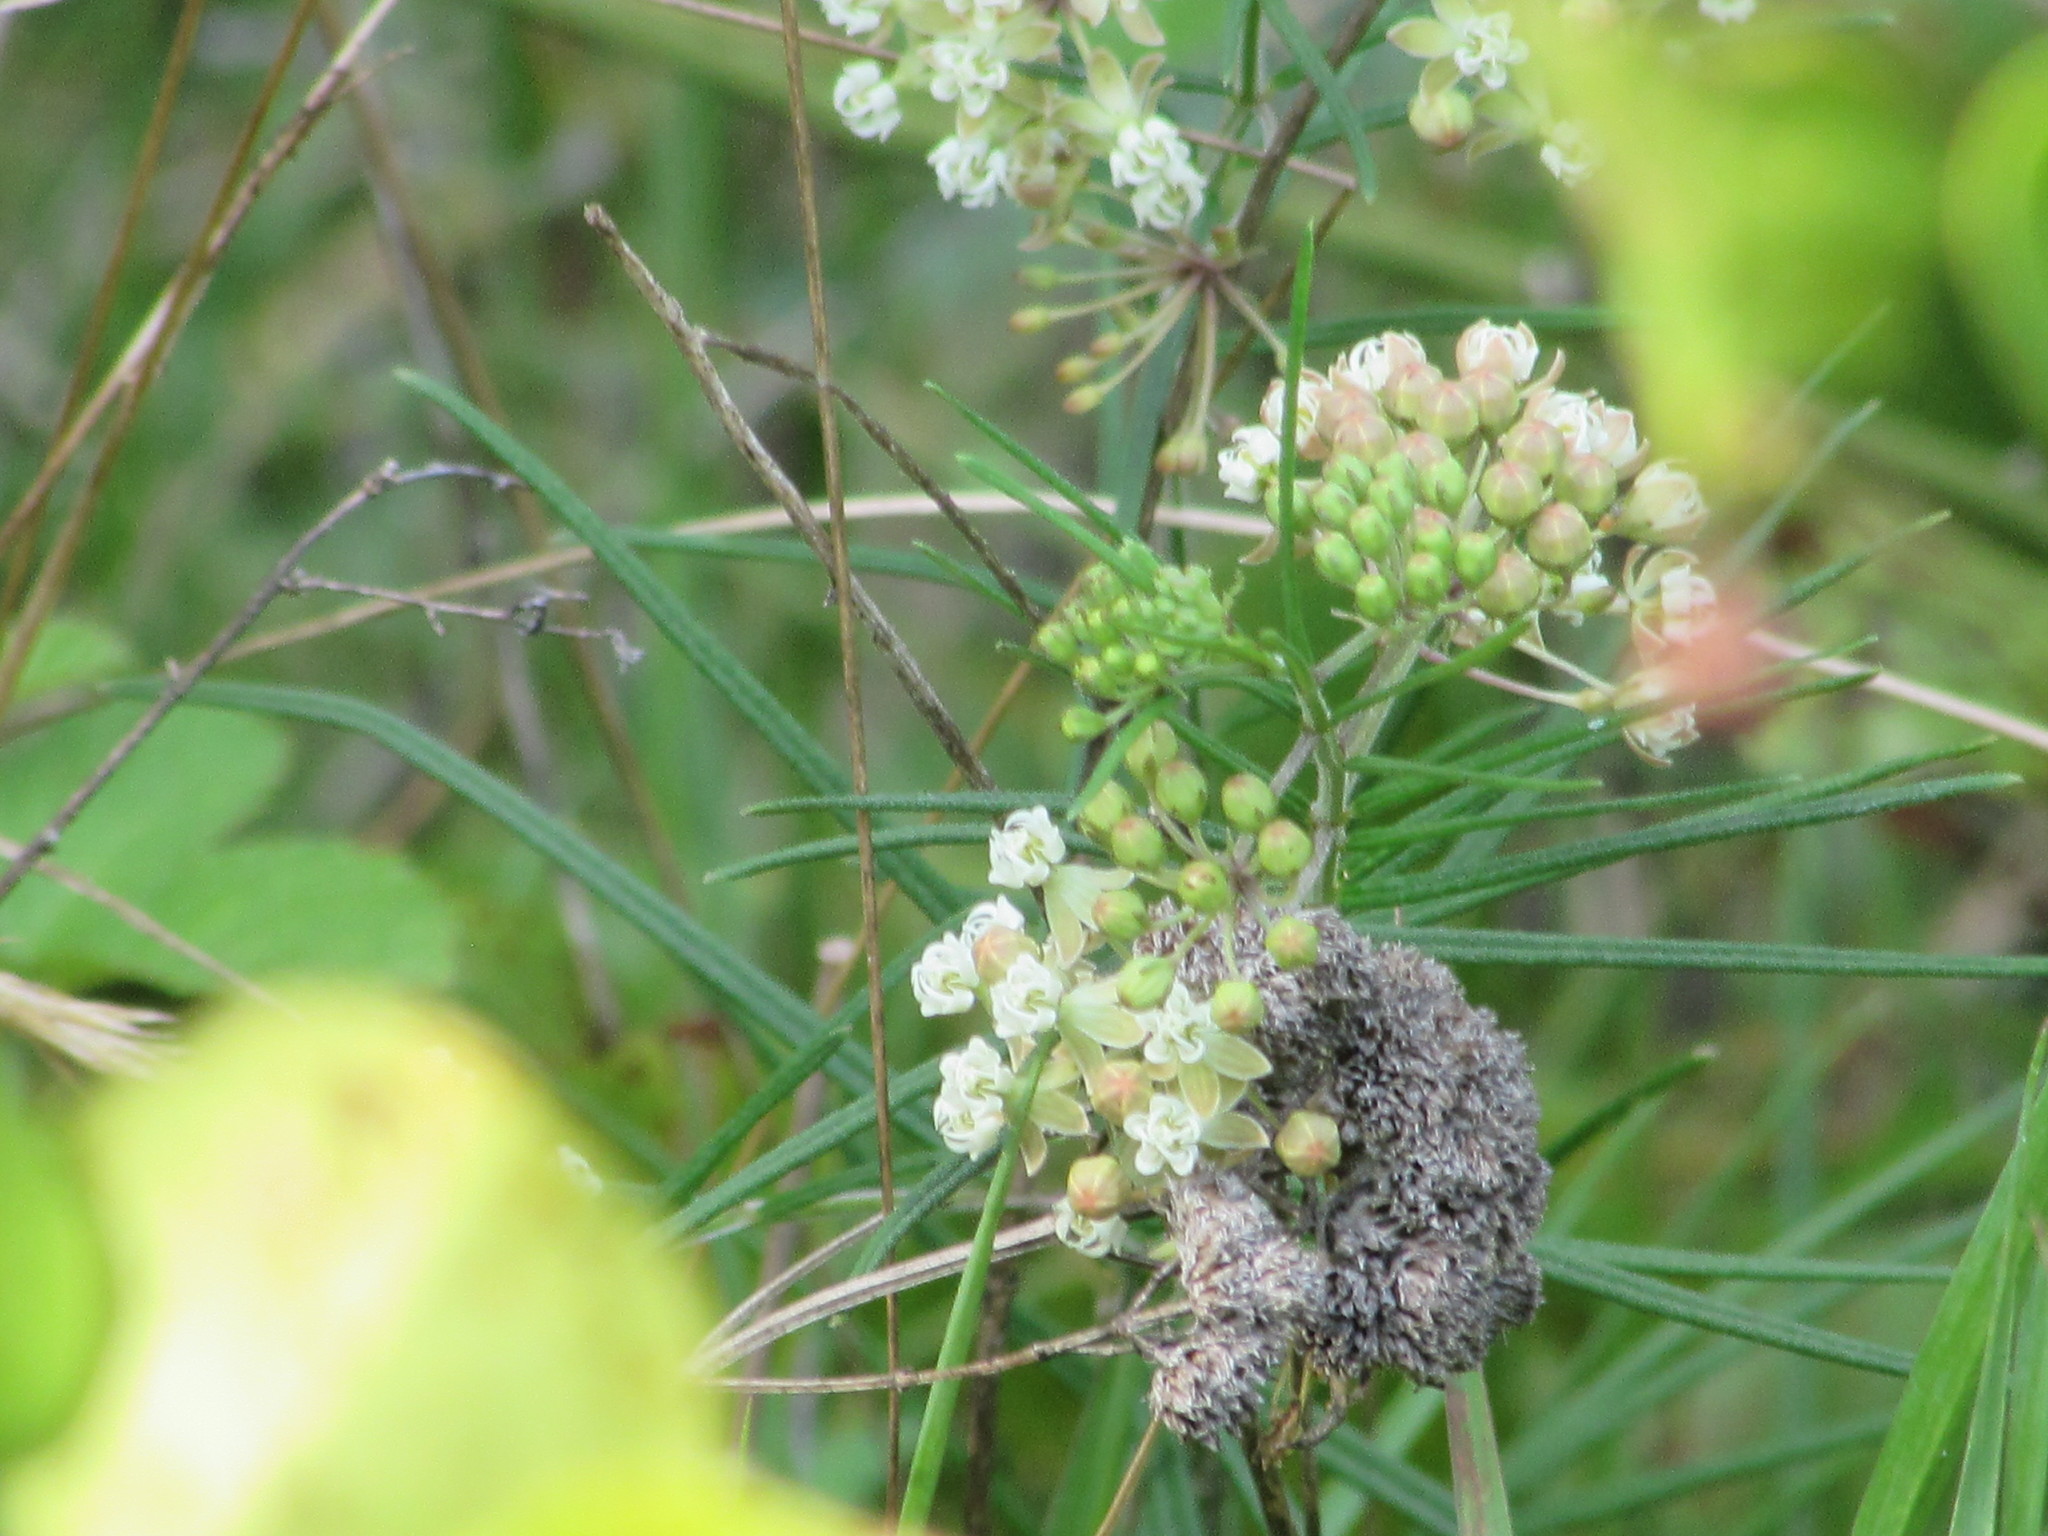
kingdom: Plantae
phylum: Tracheophyta
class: Magnoliopsida
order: Gentianales
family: Apocynaceae
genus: Asclepias
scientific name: Asclepias verticillata
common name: Eastern whorled milkweed
